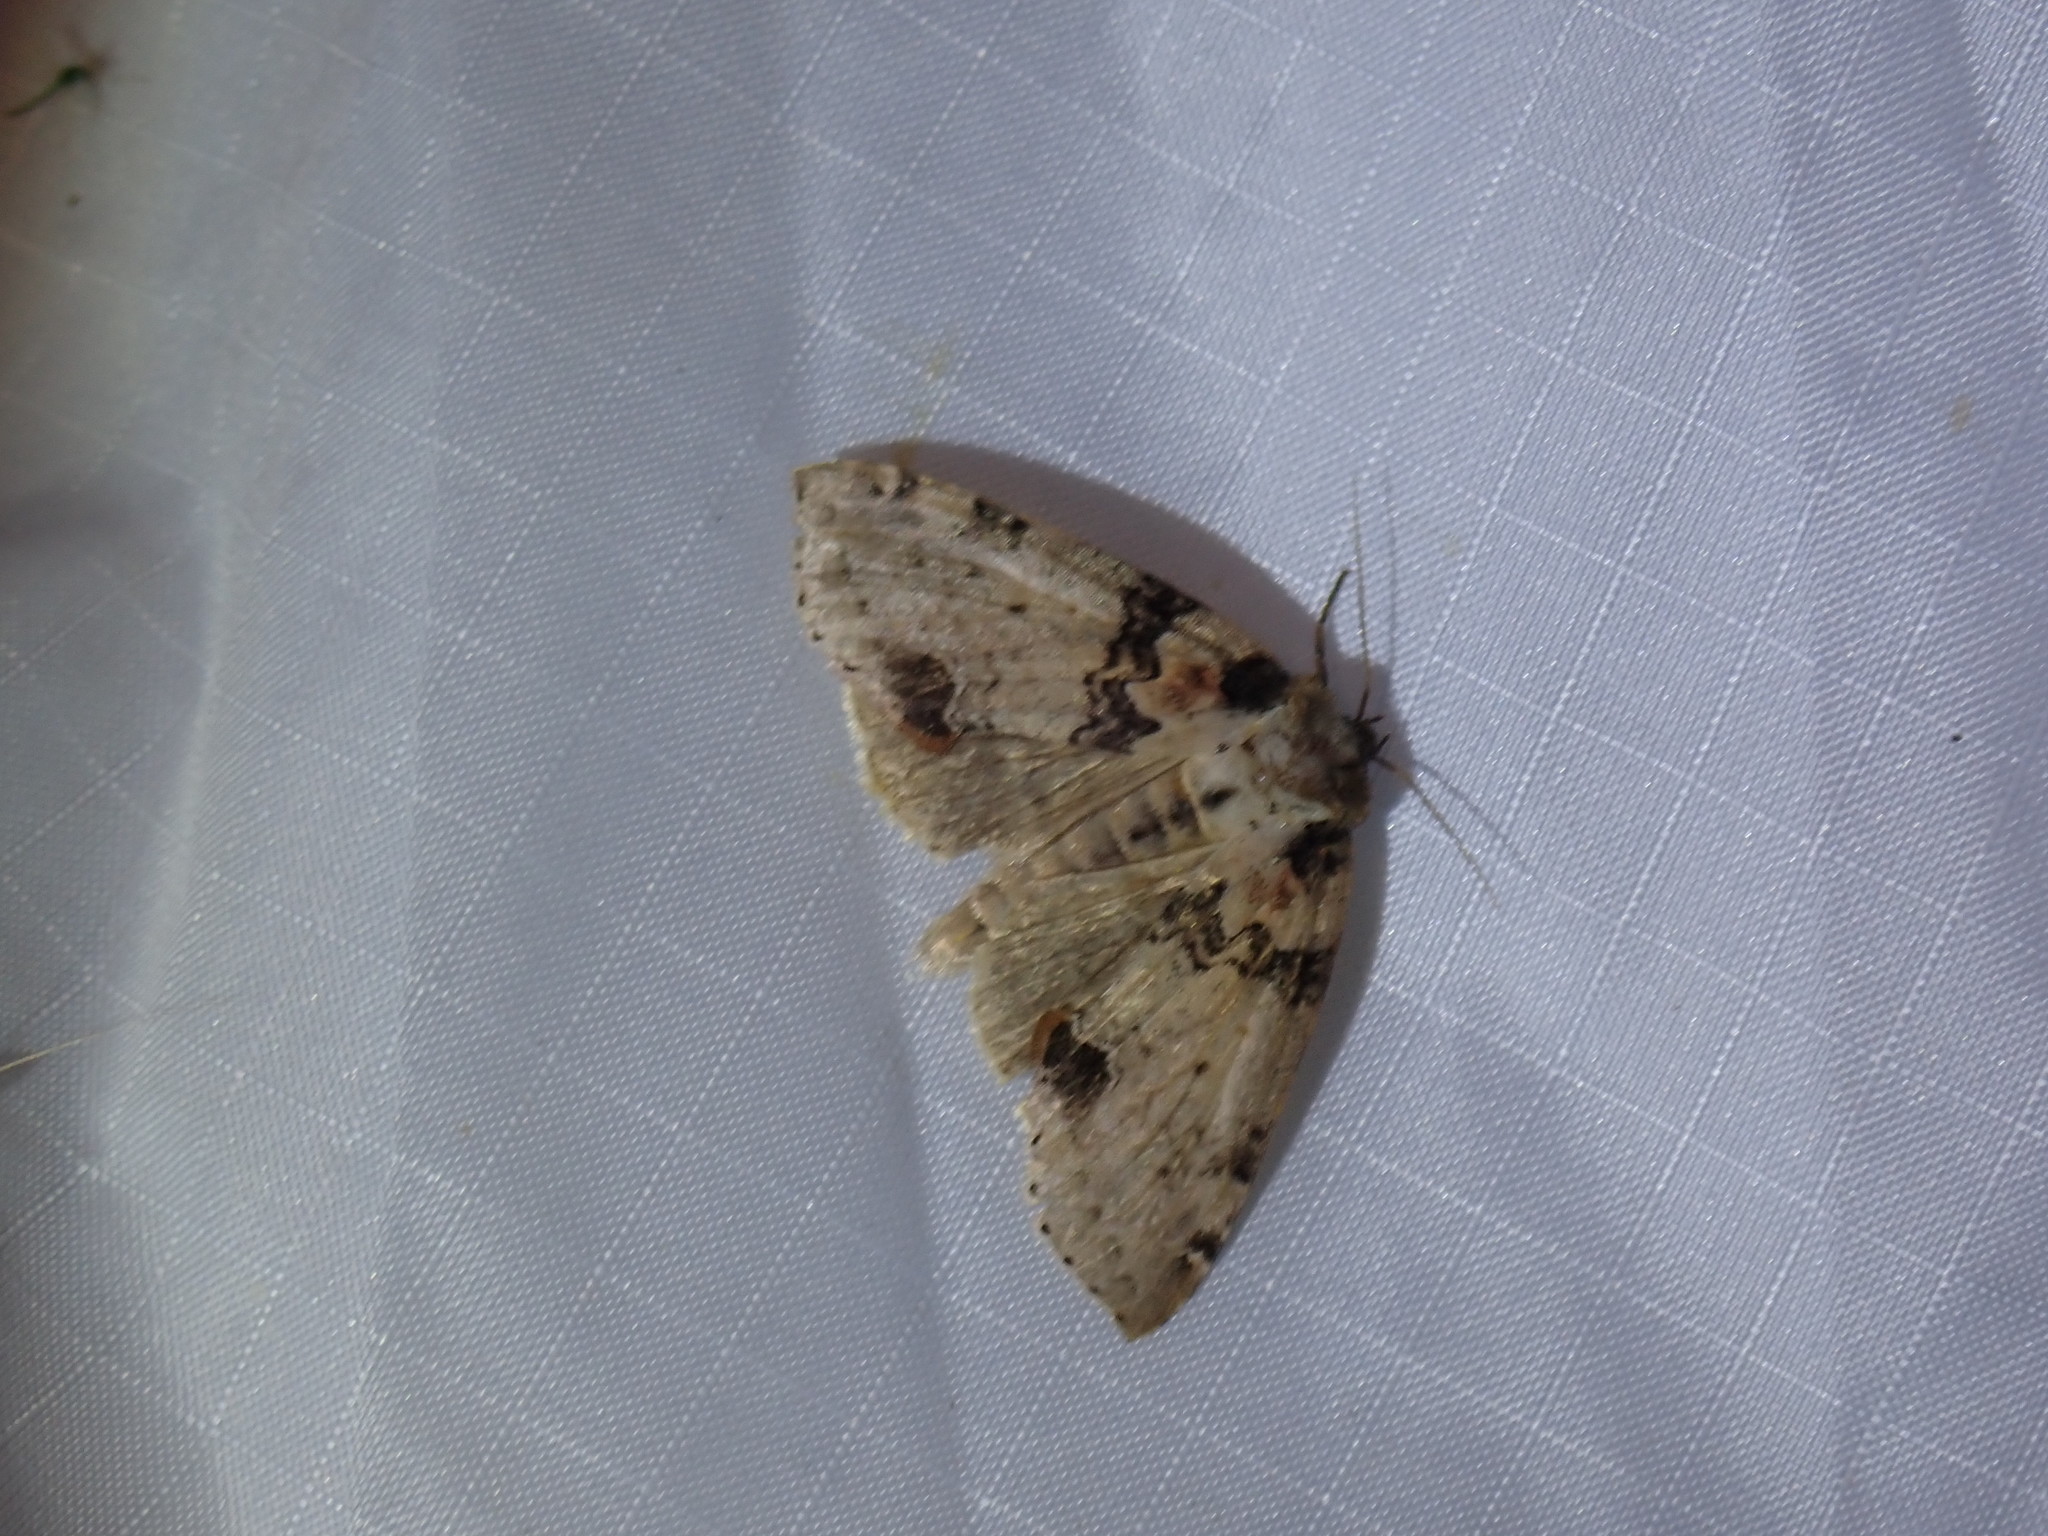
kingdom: Animalia
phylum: Arthropoda
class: Insecta
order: Lepidoptera
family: Drepanidae
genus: Pseudothyatira
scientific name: Pseudothyatira cymatophoroides
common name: Tufted thyatirid moth
